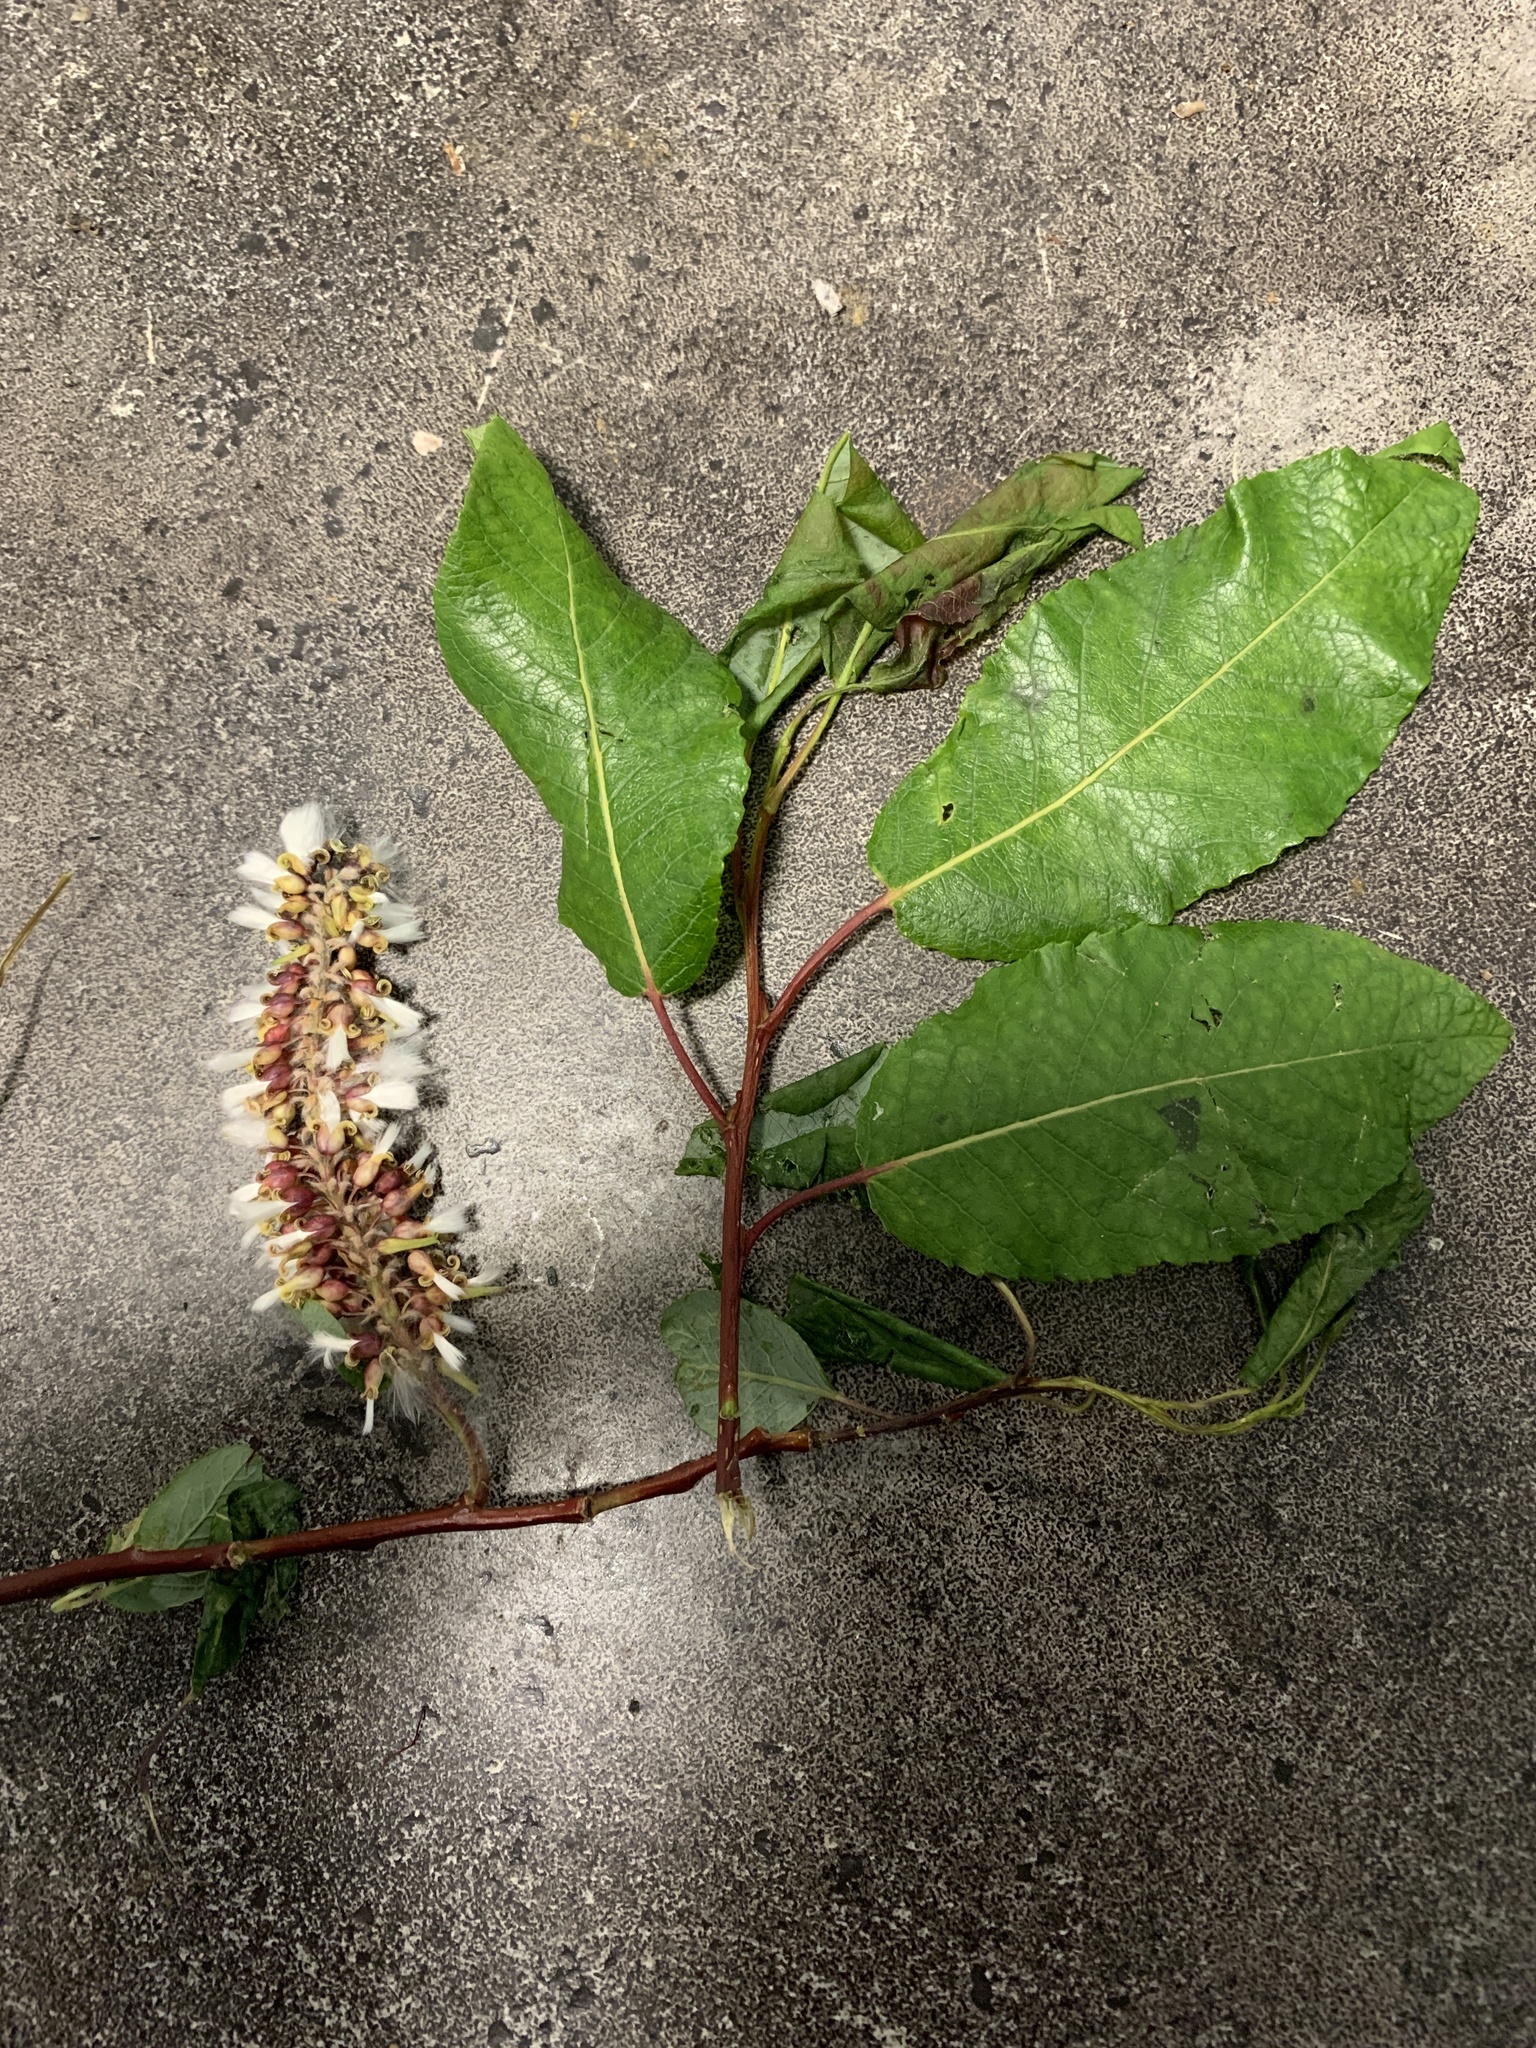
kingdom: Plantae
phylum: Tracheophyta
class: Magnoliopsida
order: Malpighiales
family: Salicaceae
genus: Salix
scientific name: Salix pyrifolia
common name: Balsam willow
